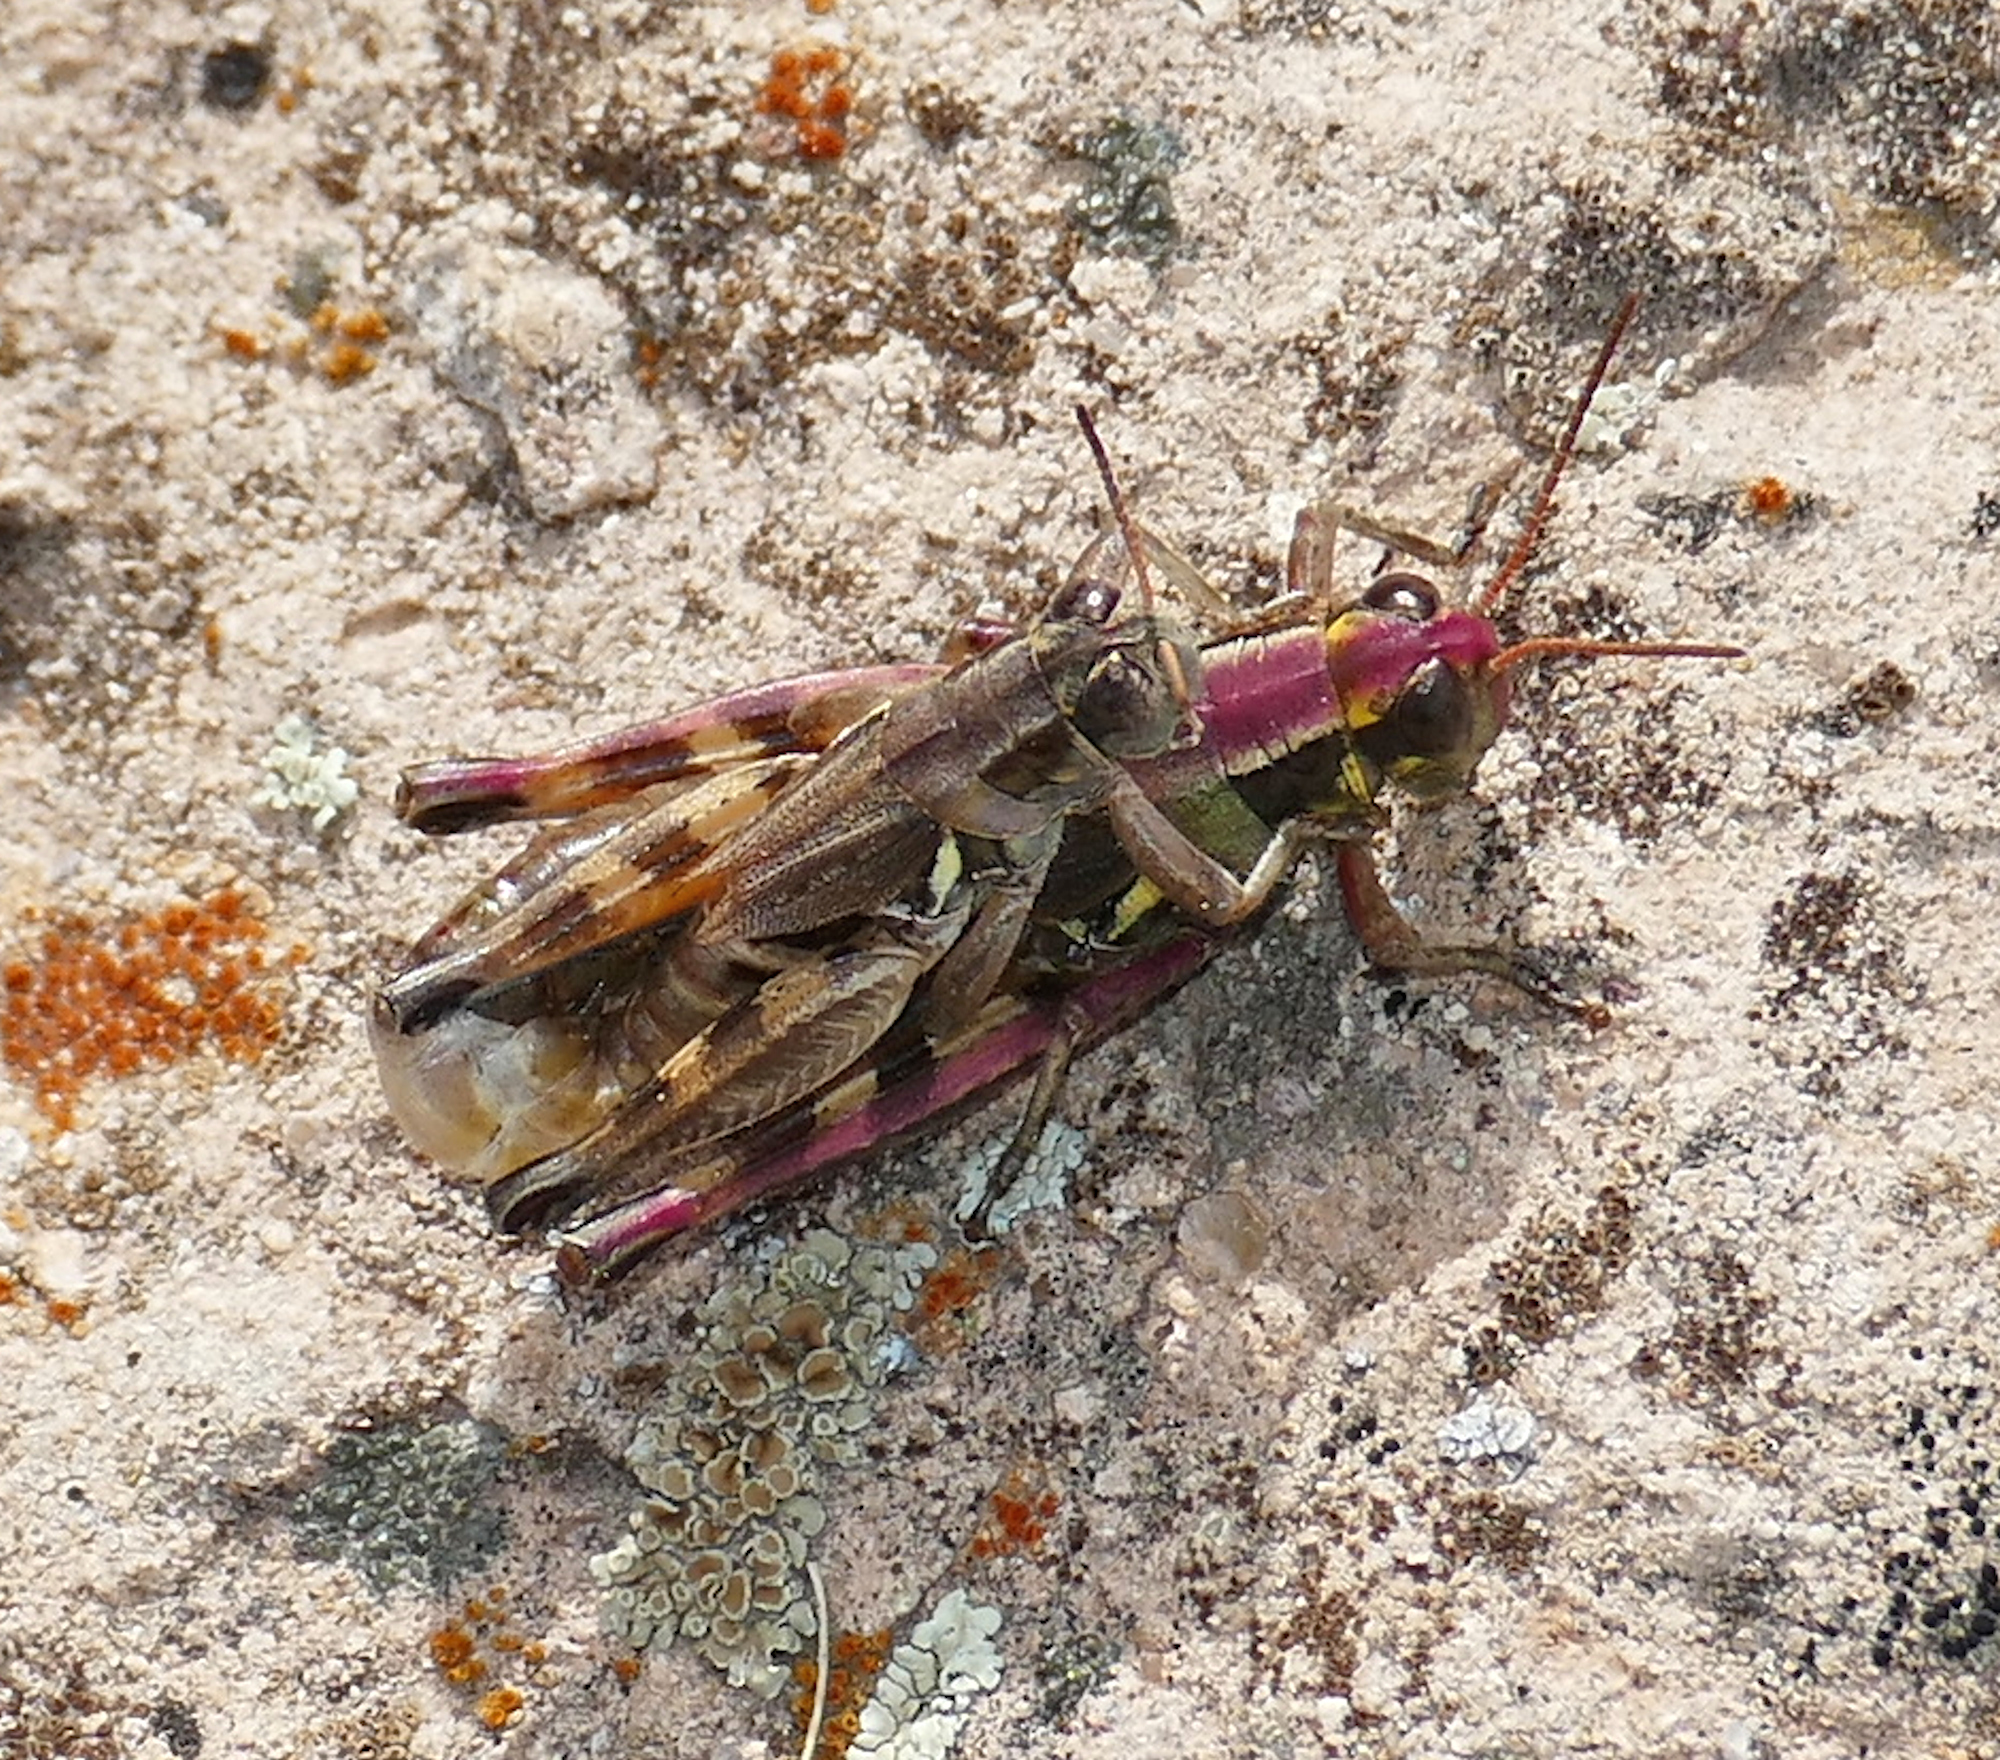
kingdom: Animalia
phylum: Arthropoda
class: Insecta
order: Orthoptera
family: Acrididae
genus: Melanoplus
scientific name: Melanoplus lakinus
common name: Lakin grasshopper
